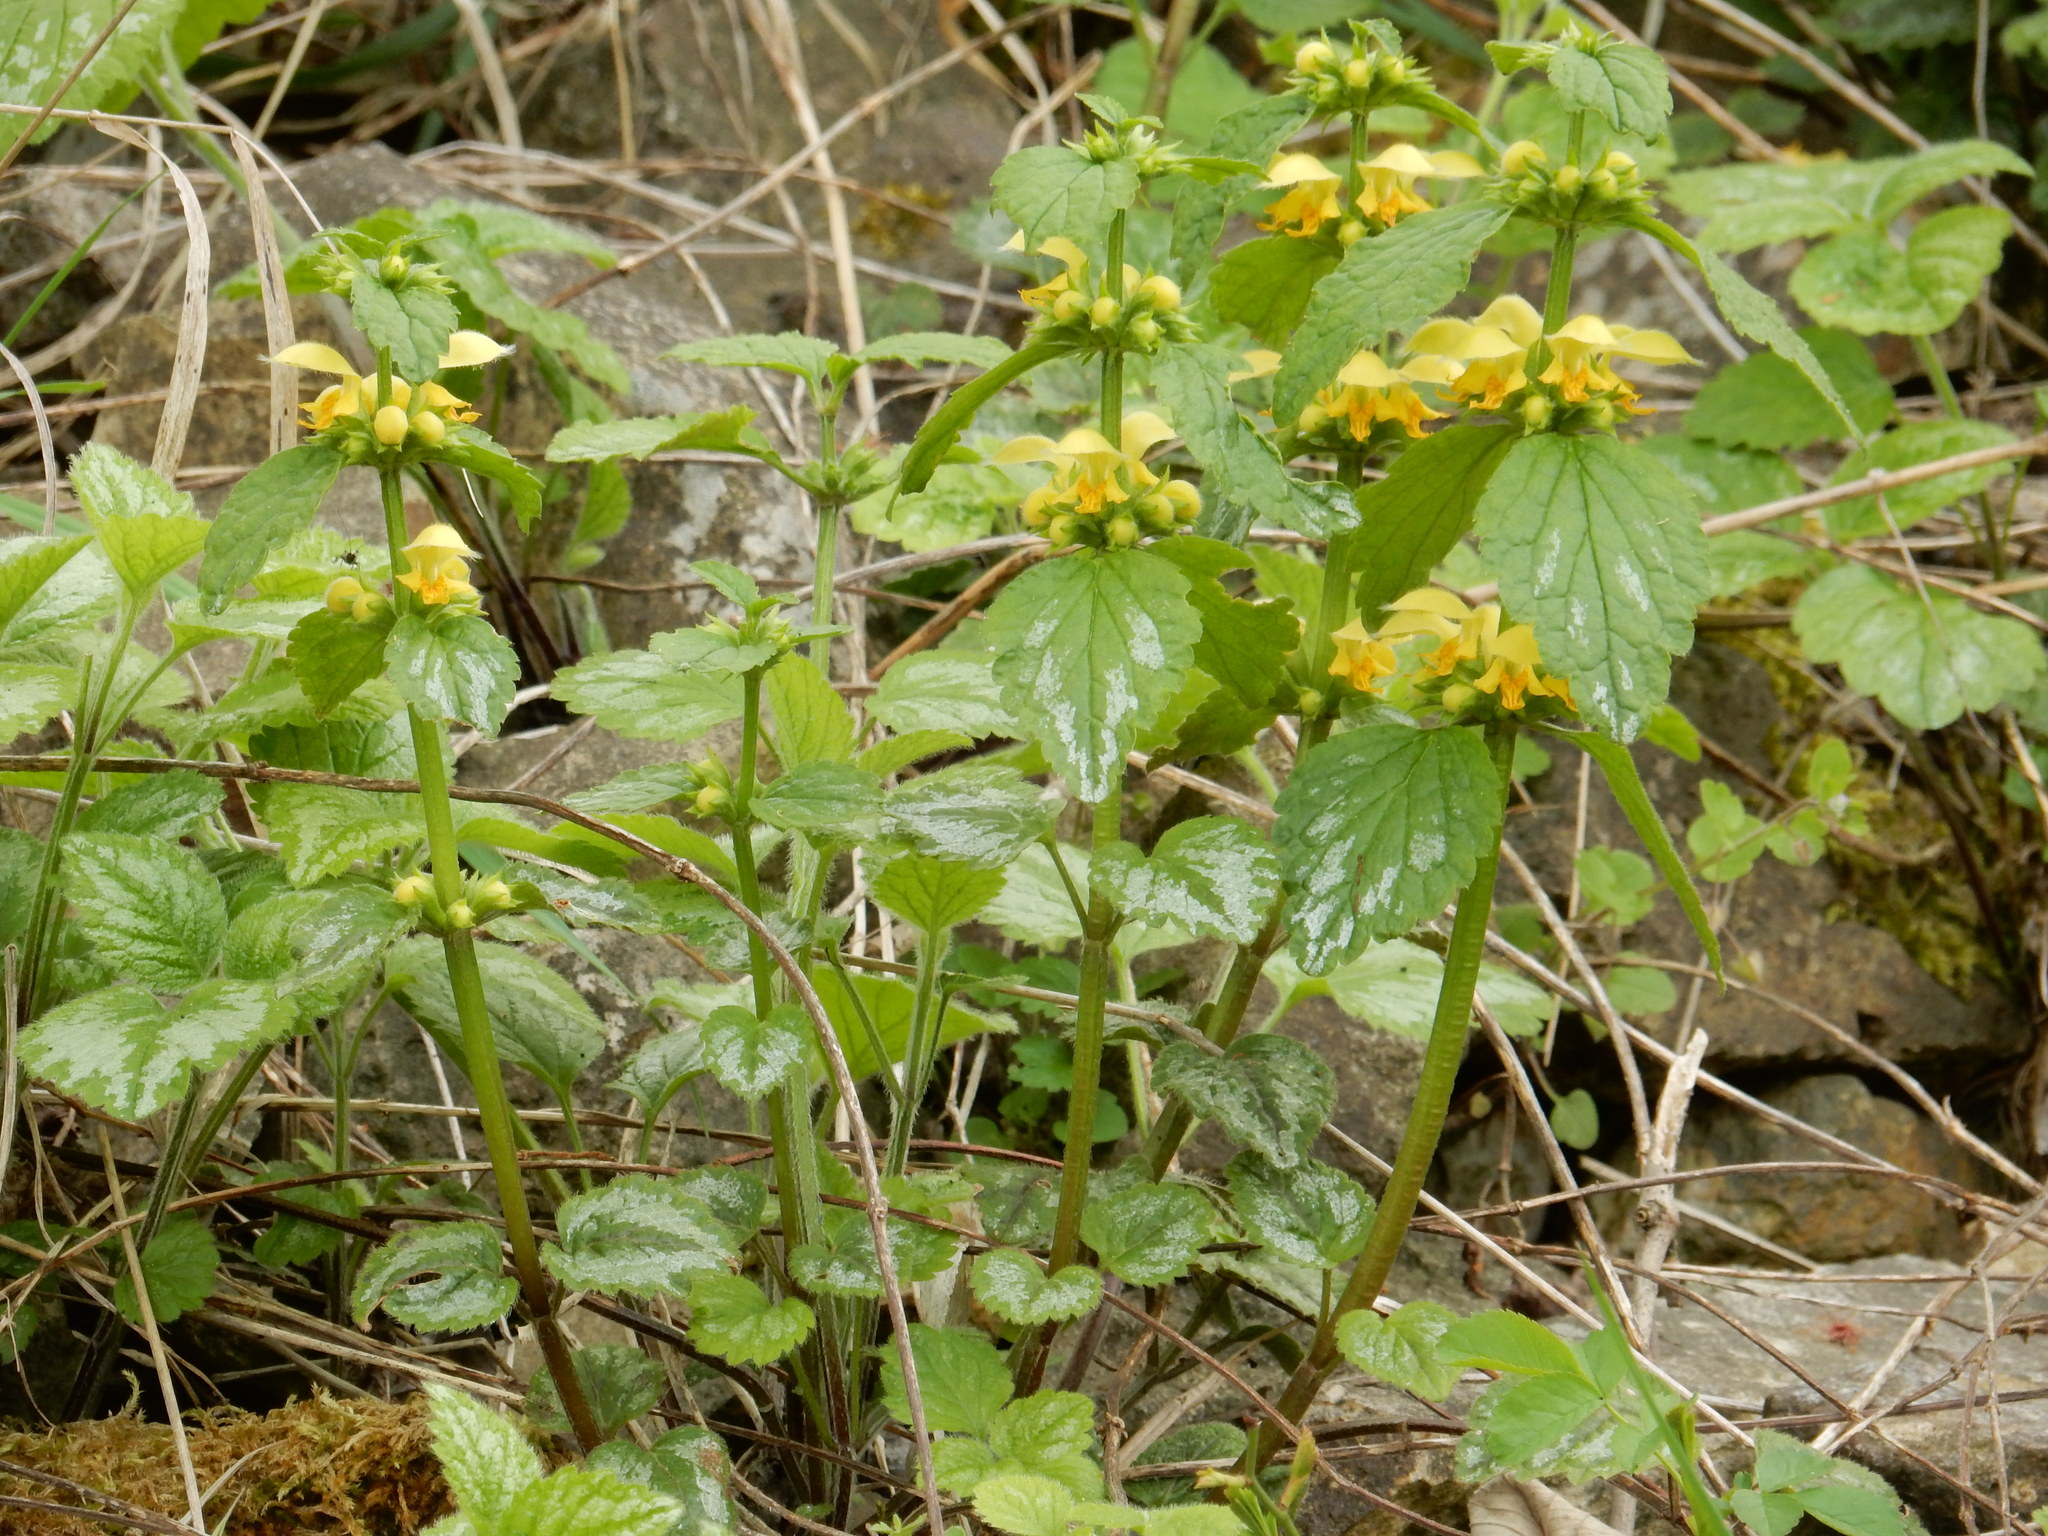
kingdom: Plantae
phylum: Tracheophyta
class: Magnoliopsida
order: Lamiales
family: Lamiaceae
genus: Lamium
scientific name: Lamium galeobdolon
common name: Yellow archangel
